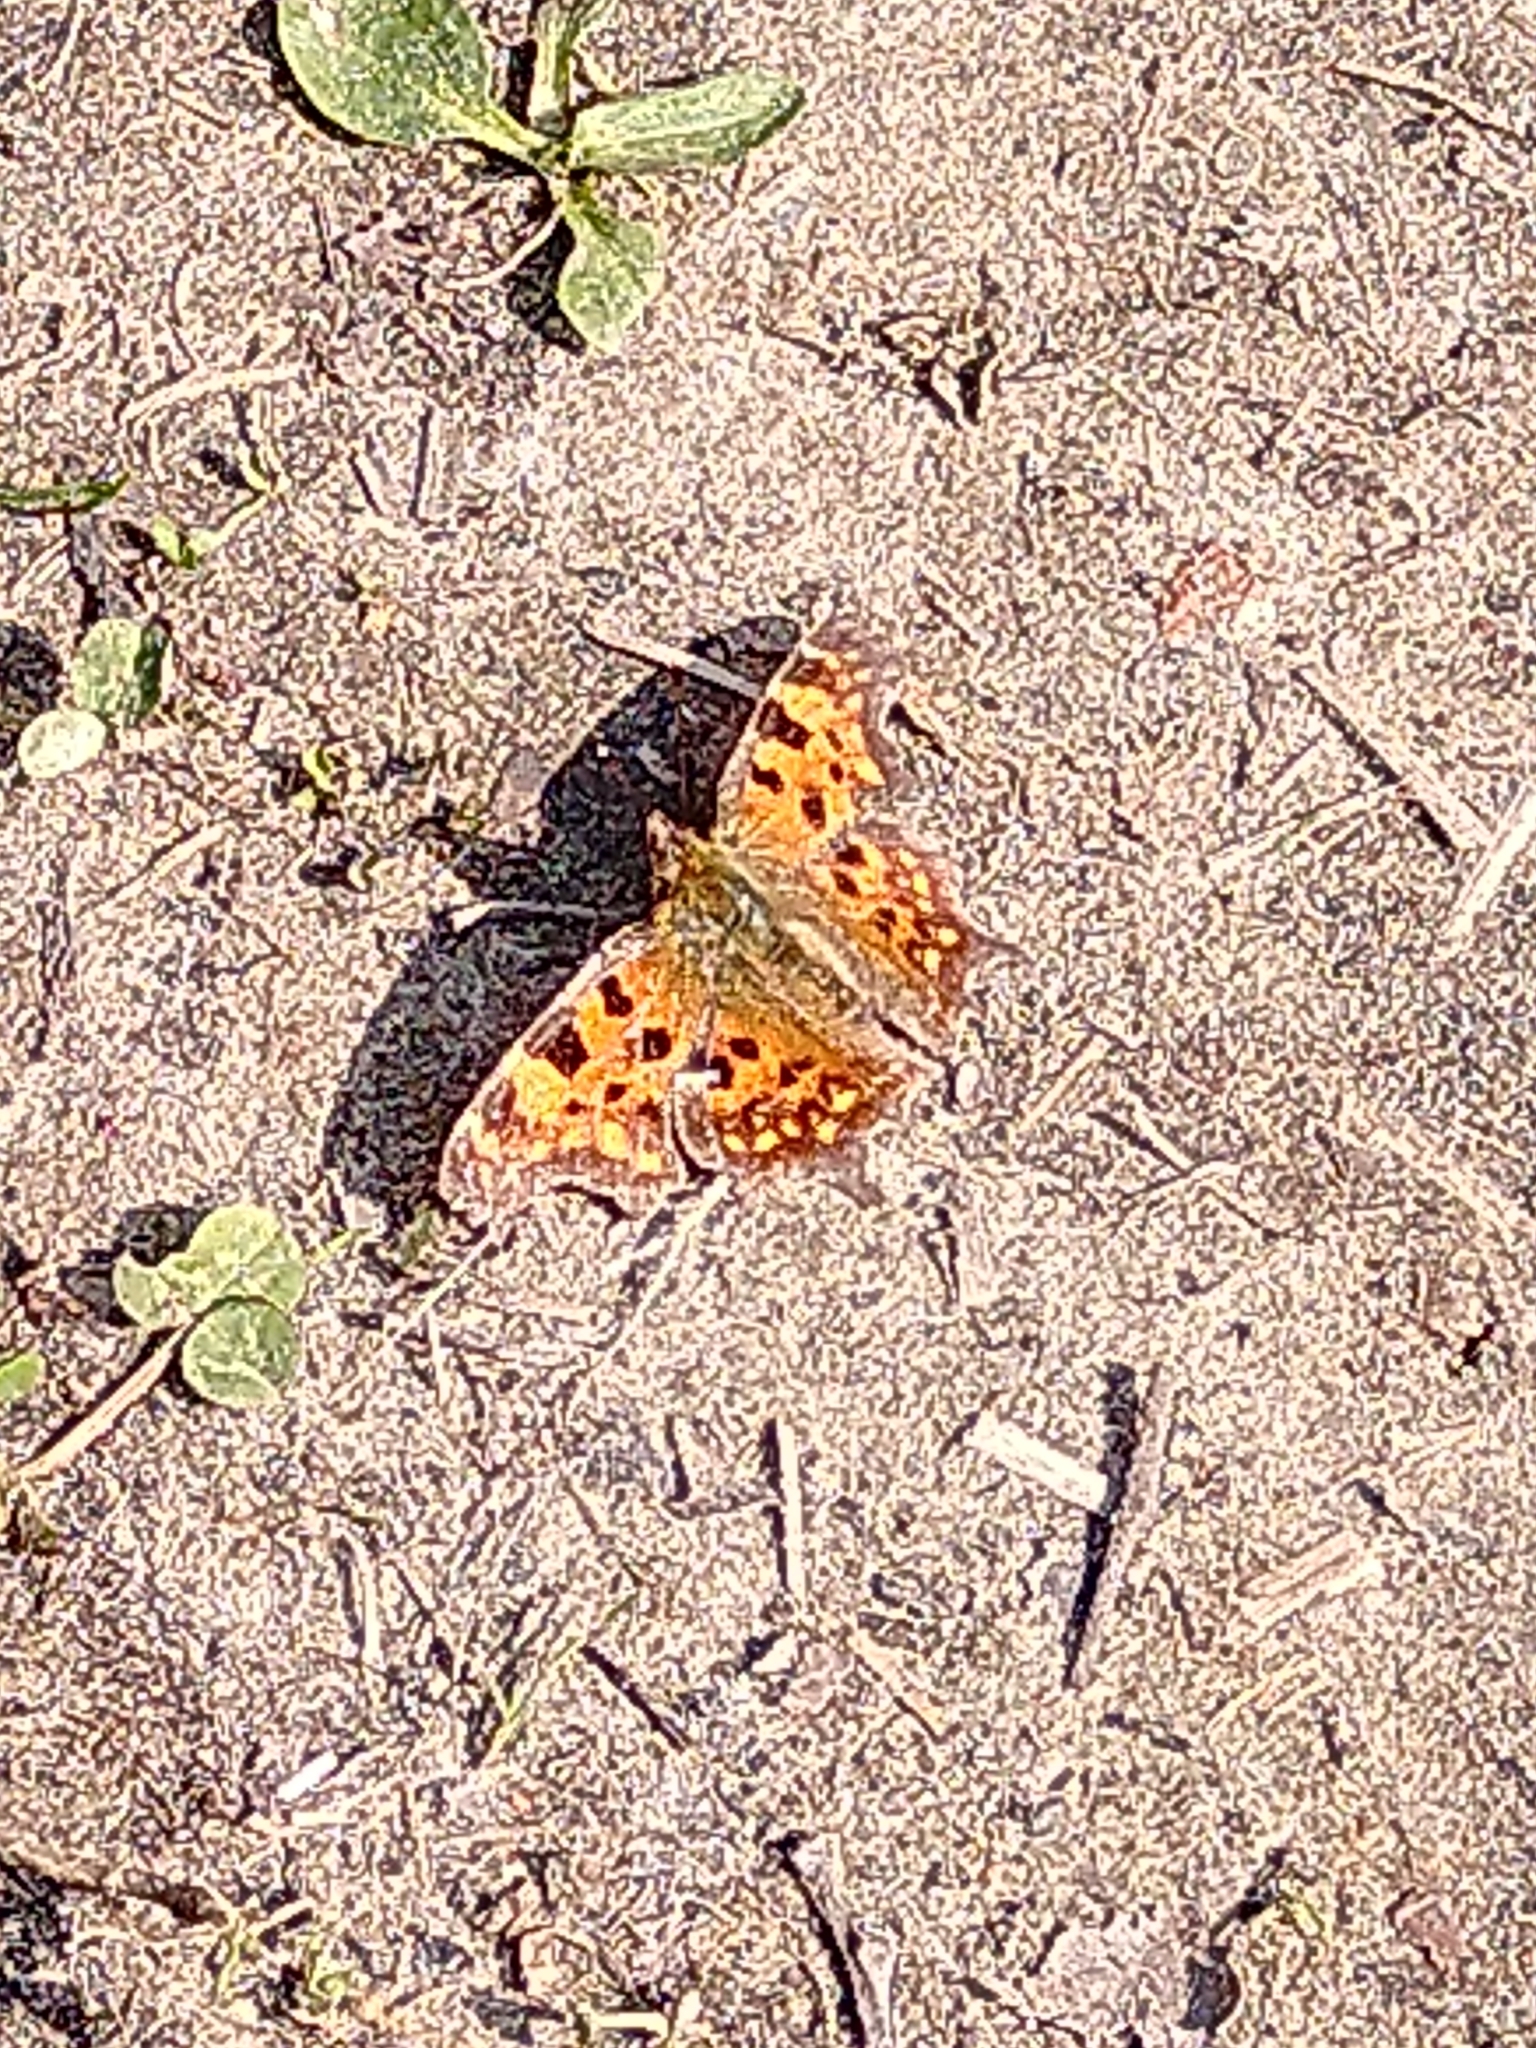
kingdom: Animalia
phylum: Arthropoda
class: Insecta
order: Lepidoptera
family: Nymphalidae
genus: Polygonia
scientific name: Polygonia c-album
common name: Comma
